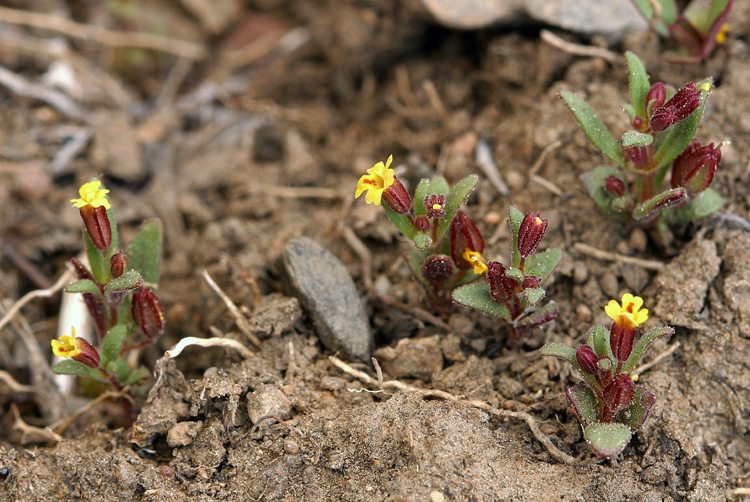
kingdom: Plantae
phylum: Tracheophyta
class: Magnoliopsida
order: Lamiales
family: Phrymaceae
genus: Erythranthe
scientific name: Erythranthe suksdorfii
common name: Suksdorf's monkeyflower
